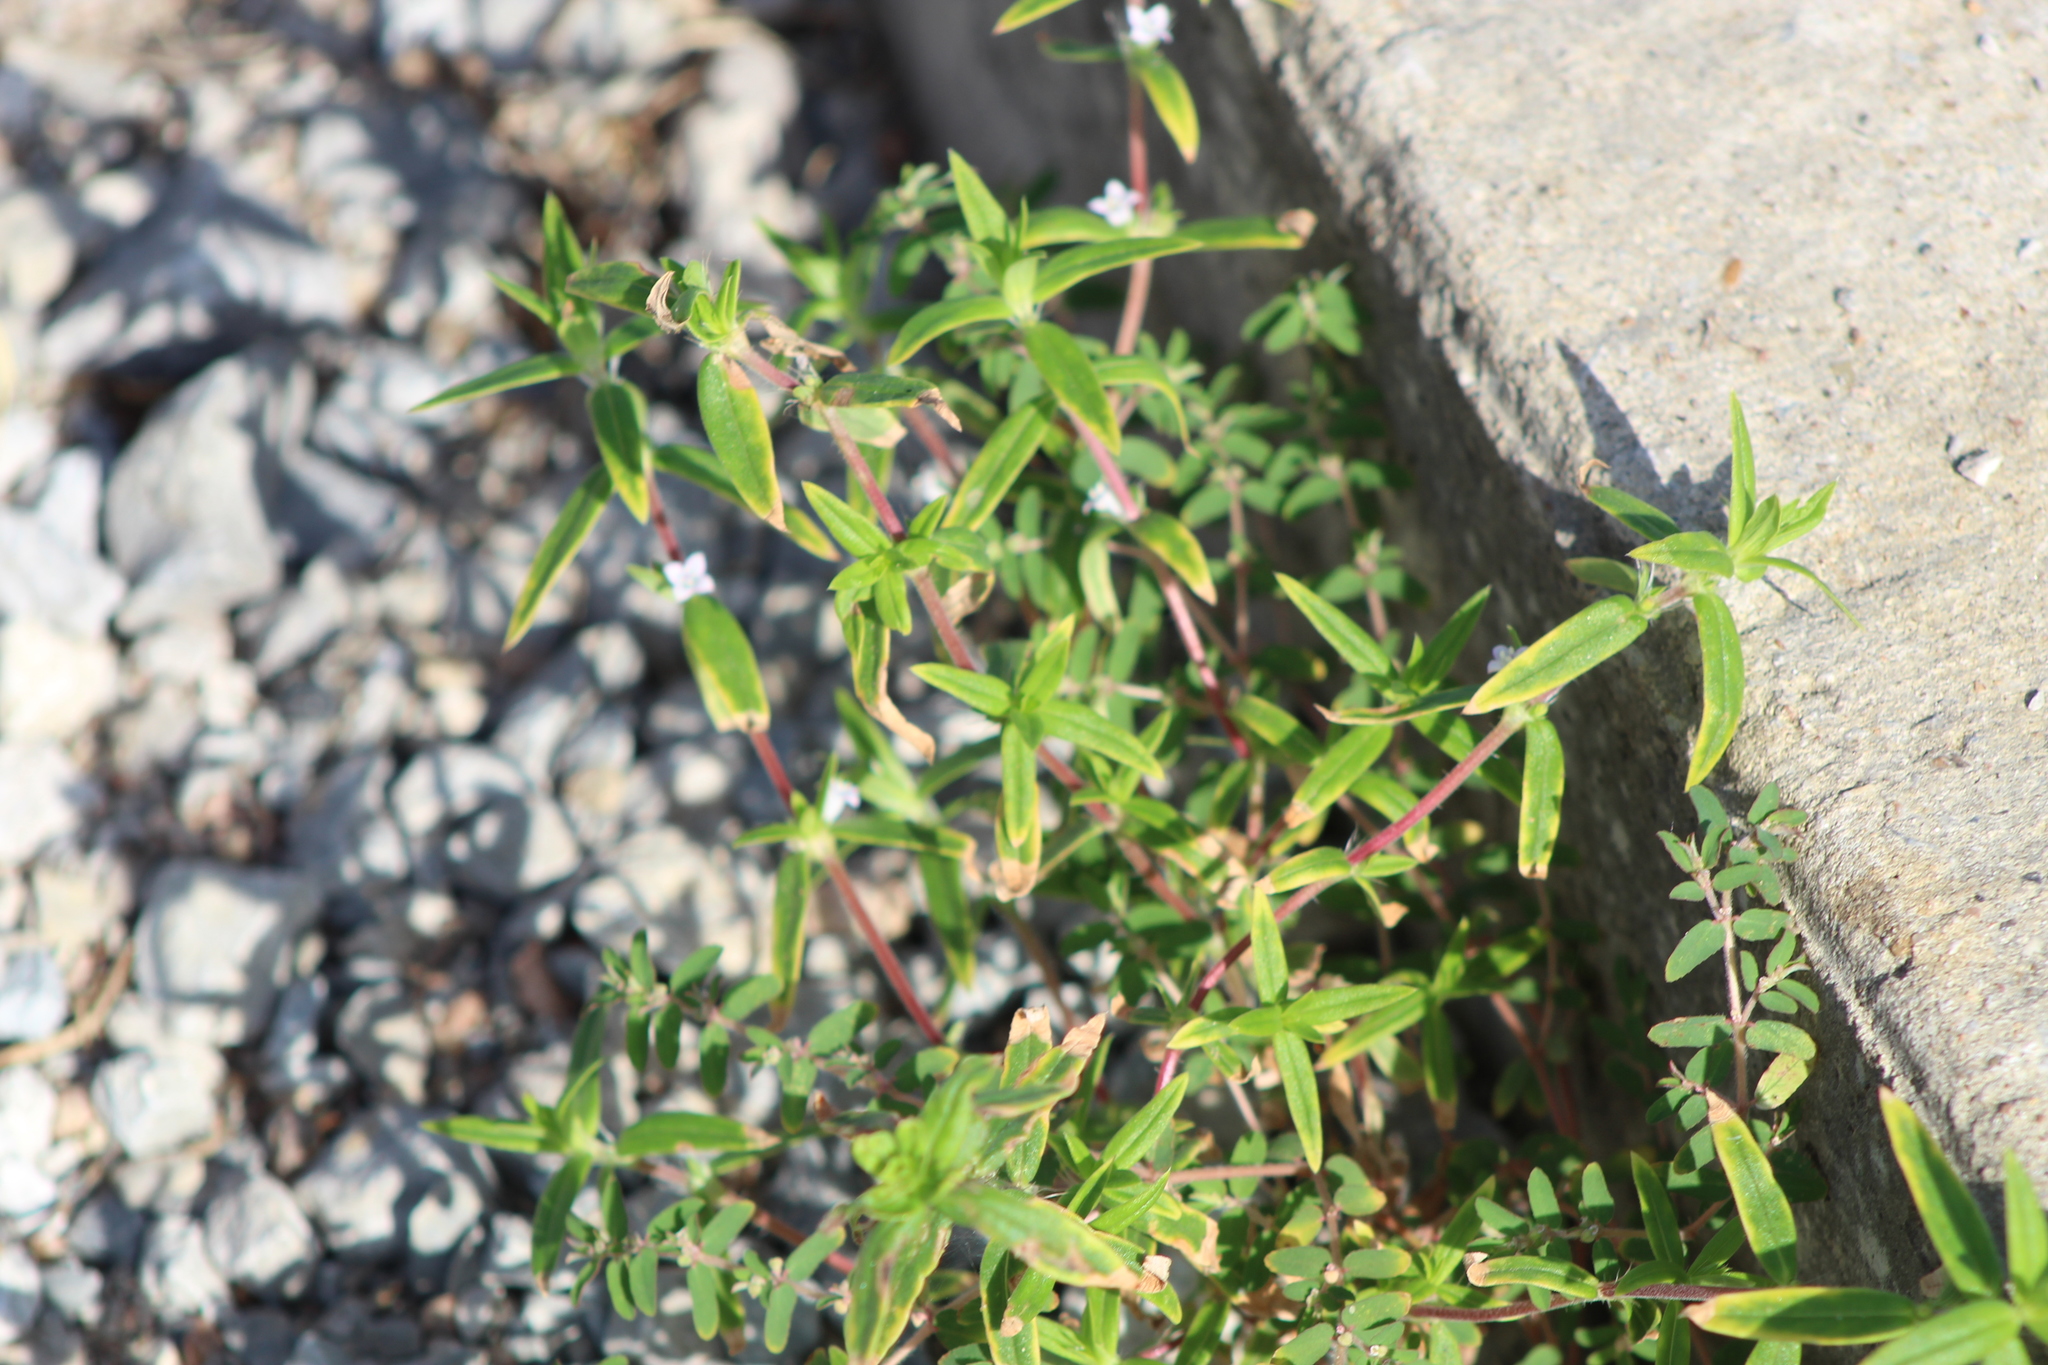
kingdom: Plantae
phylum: Tracheophyta
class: Magnoliopsida
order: Gentianales
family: Rubiaceae
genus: Hexasepalum
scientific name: Hexasepalum teres
